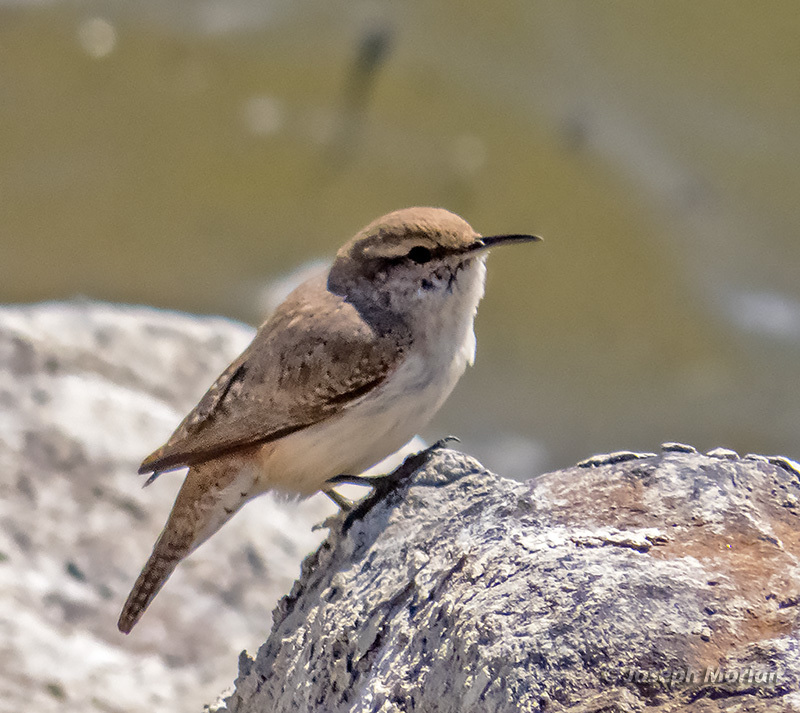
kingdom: Animalia
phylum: Chordata
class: Aves
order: Passeriformes
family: Troglodytidae
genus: Salpinctes
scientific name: Salpinctes obsoletus
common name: Rock wren
